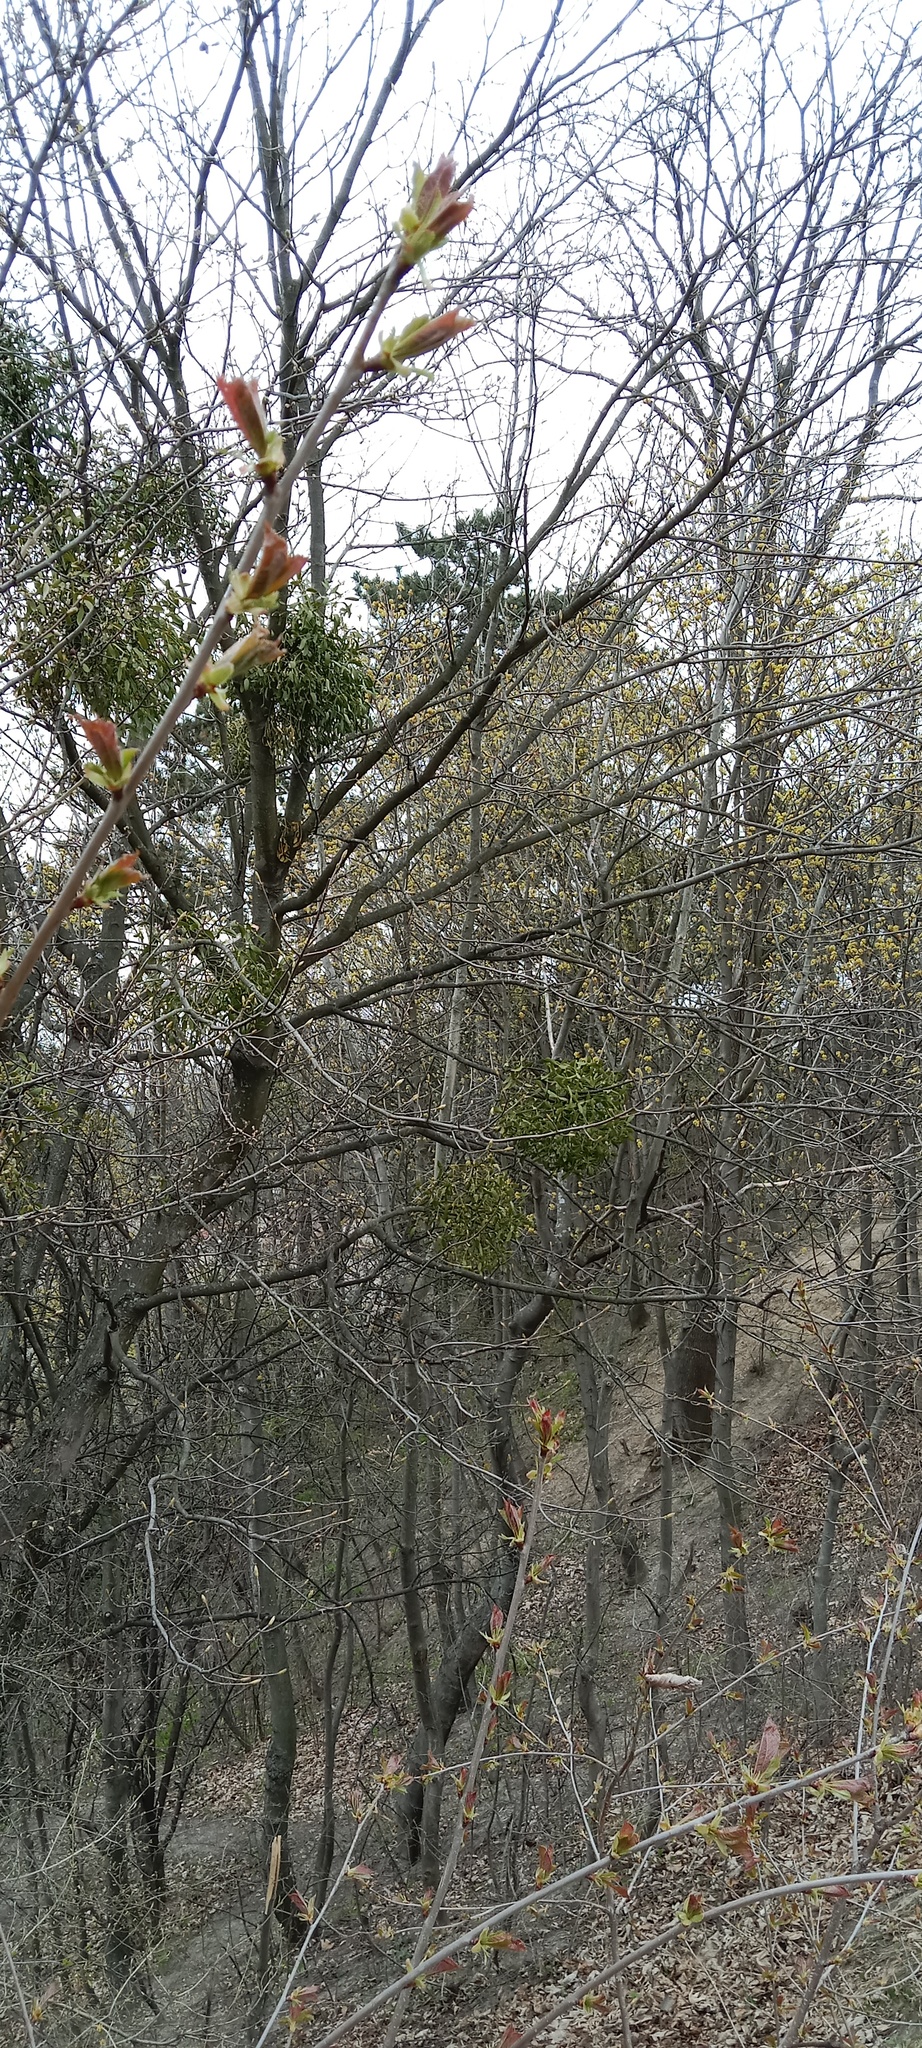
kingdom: Plantae
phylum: Tracheophyta
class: Magnoliopsida
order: Santalales
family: Viscaceae
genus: Viscum
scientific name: Viscum album
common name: Mistletoe
